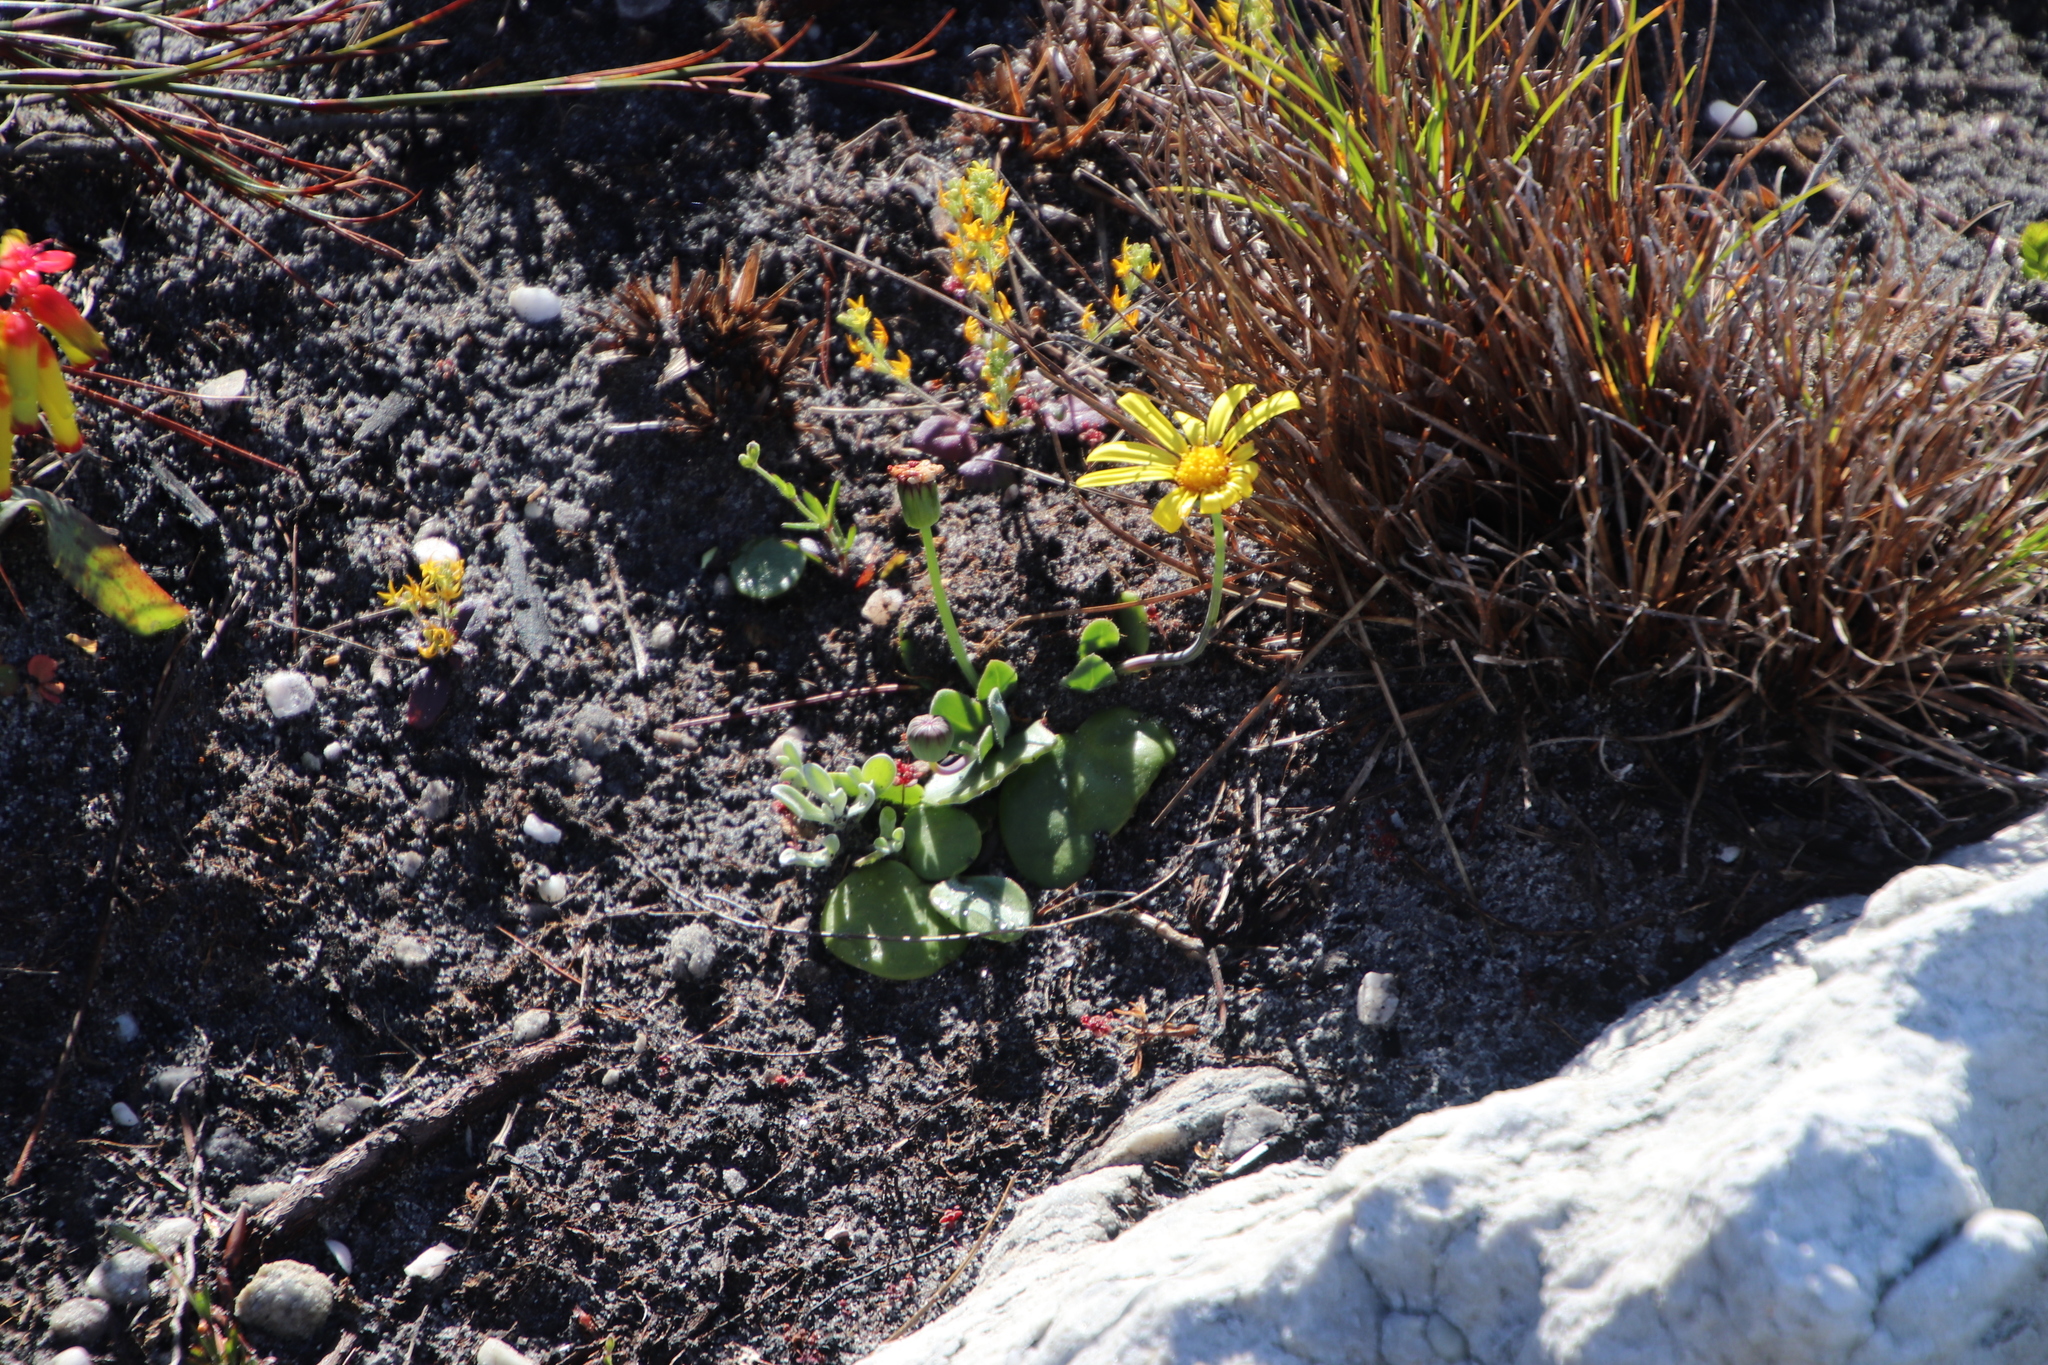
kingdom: Plantae
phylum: Tracheophyta
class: Magnoliopsida
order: Asterales
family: Asteraceae
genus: Othonna
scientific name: Othonna bulbosa
